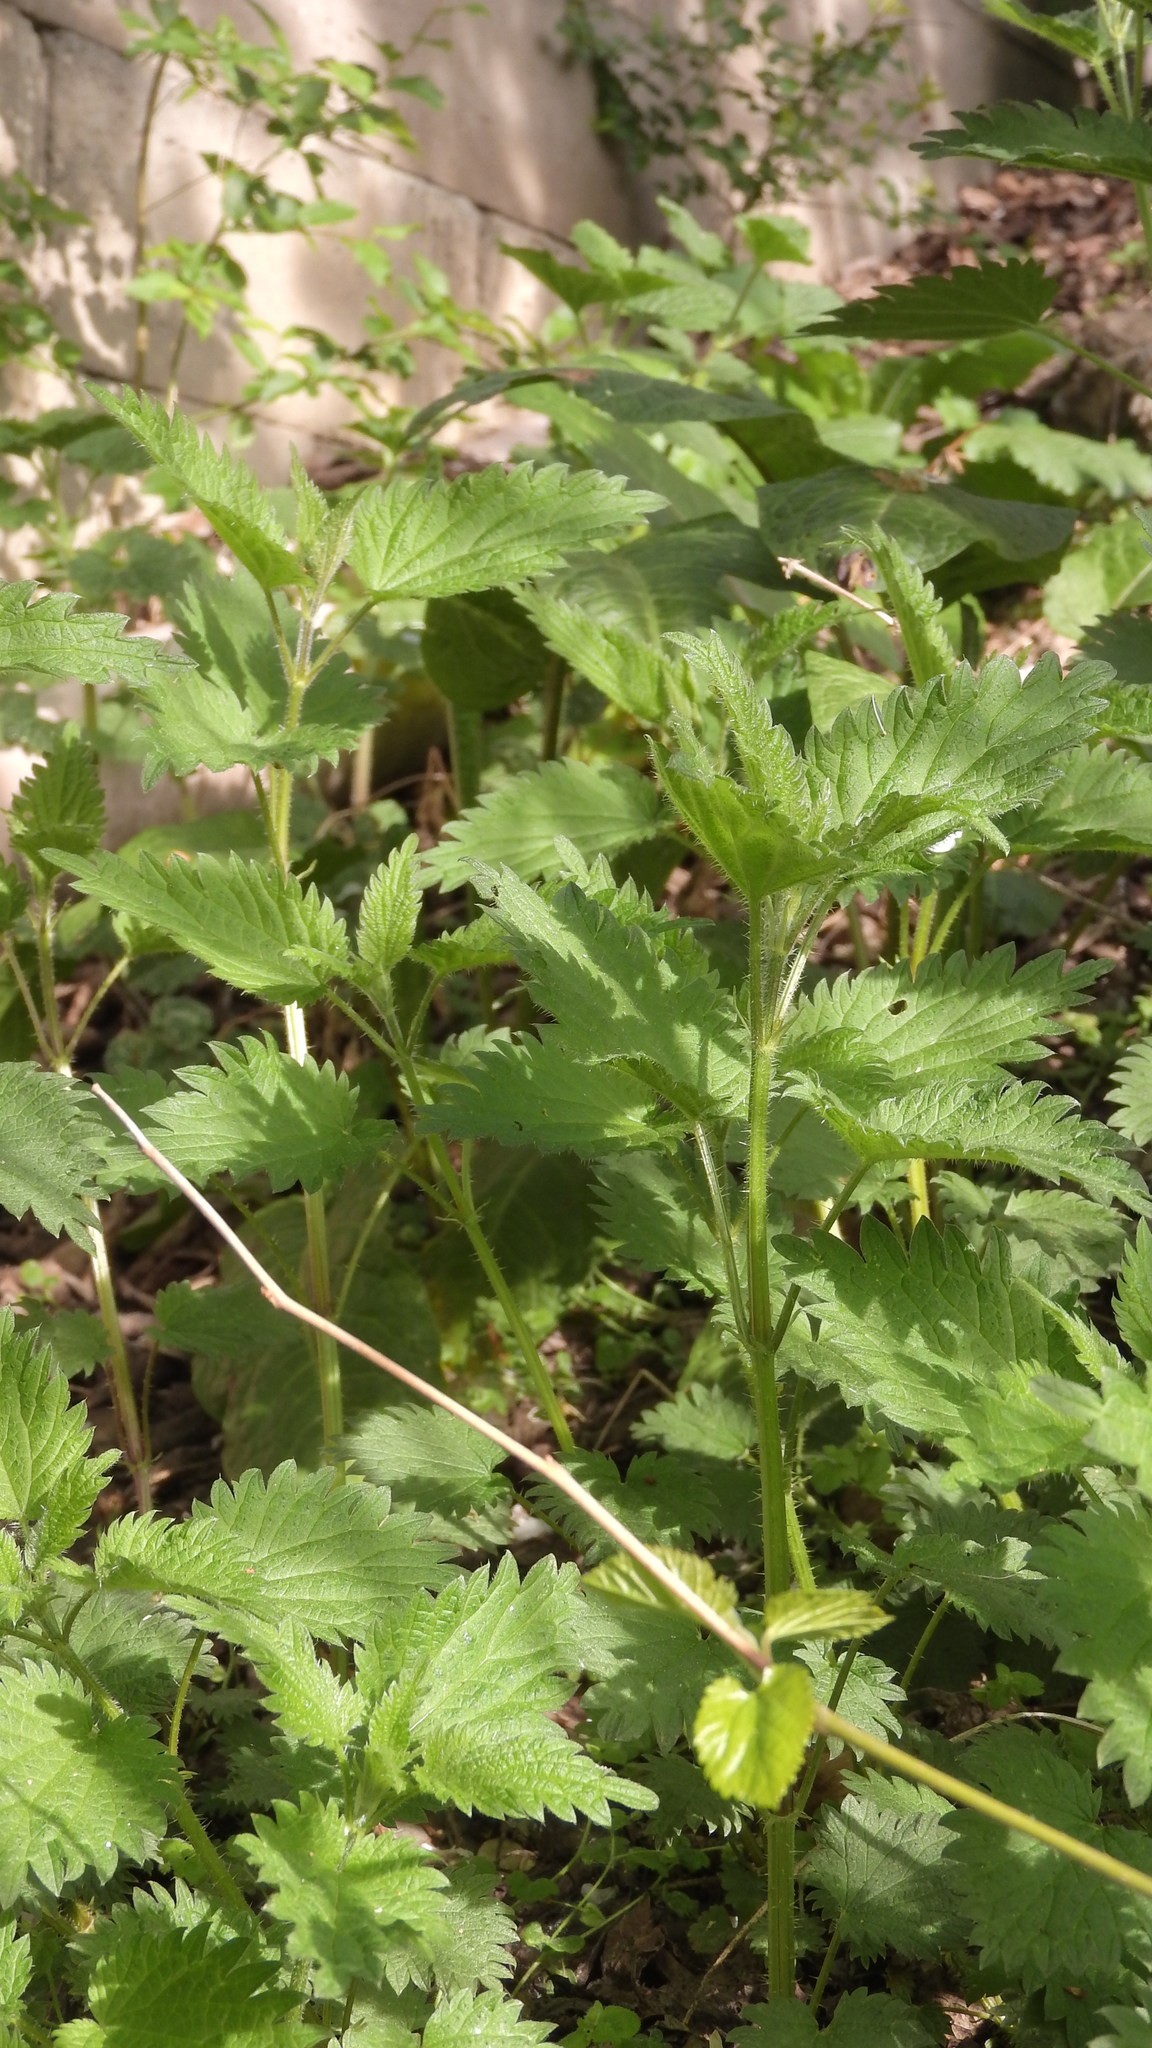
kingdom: Plantae
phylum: Tracheophyta
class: Magnoliopsida
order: Rosales
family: Urticaceae
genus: Urtica
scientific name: Urtica dioica
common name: Common nettle
